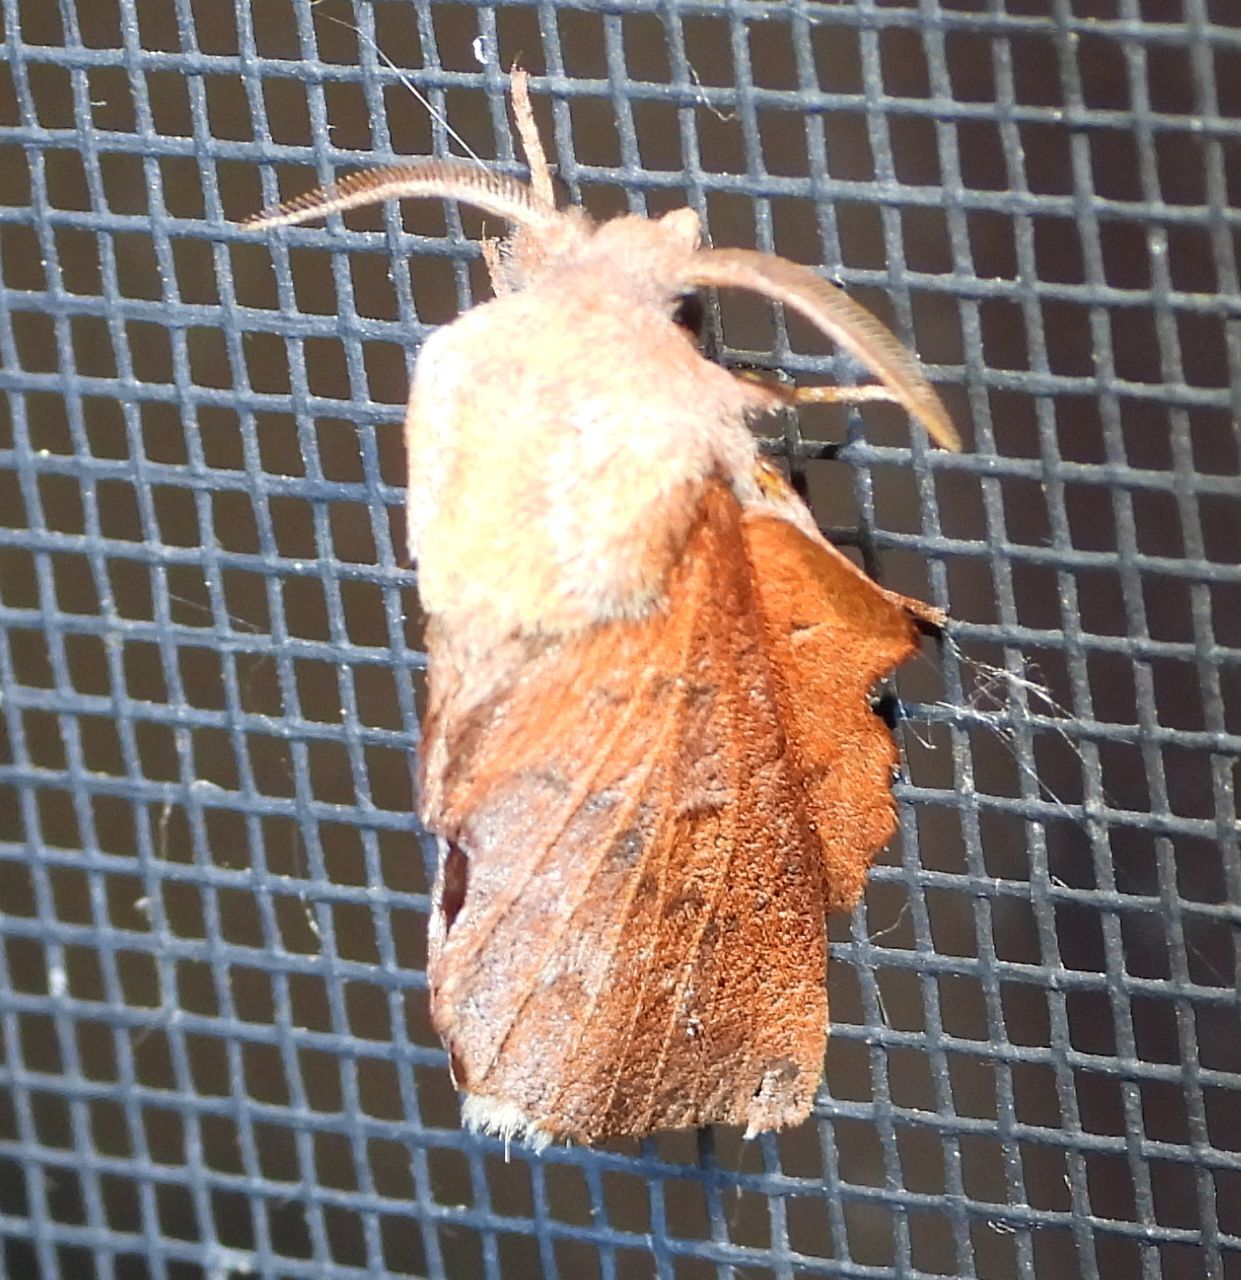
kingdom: Animalia
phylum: Arthropoda
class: Insecta
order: Lepidoptera
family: Lasiocampidae
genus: Phyllodesma
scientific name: Phyllodesma americana
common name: American lappet moth
